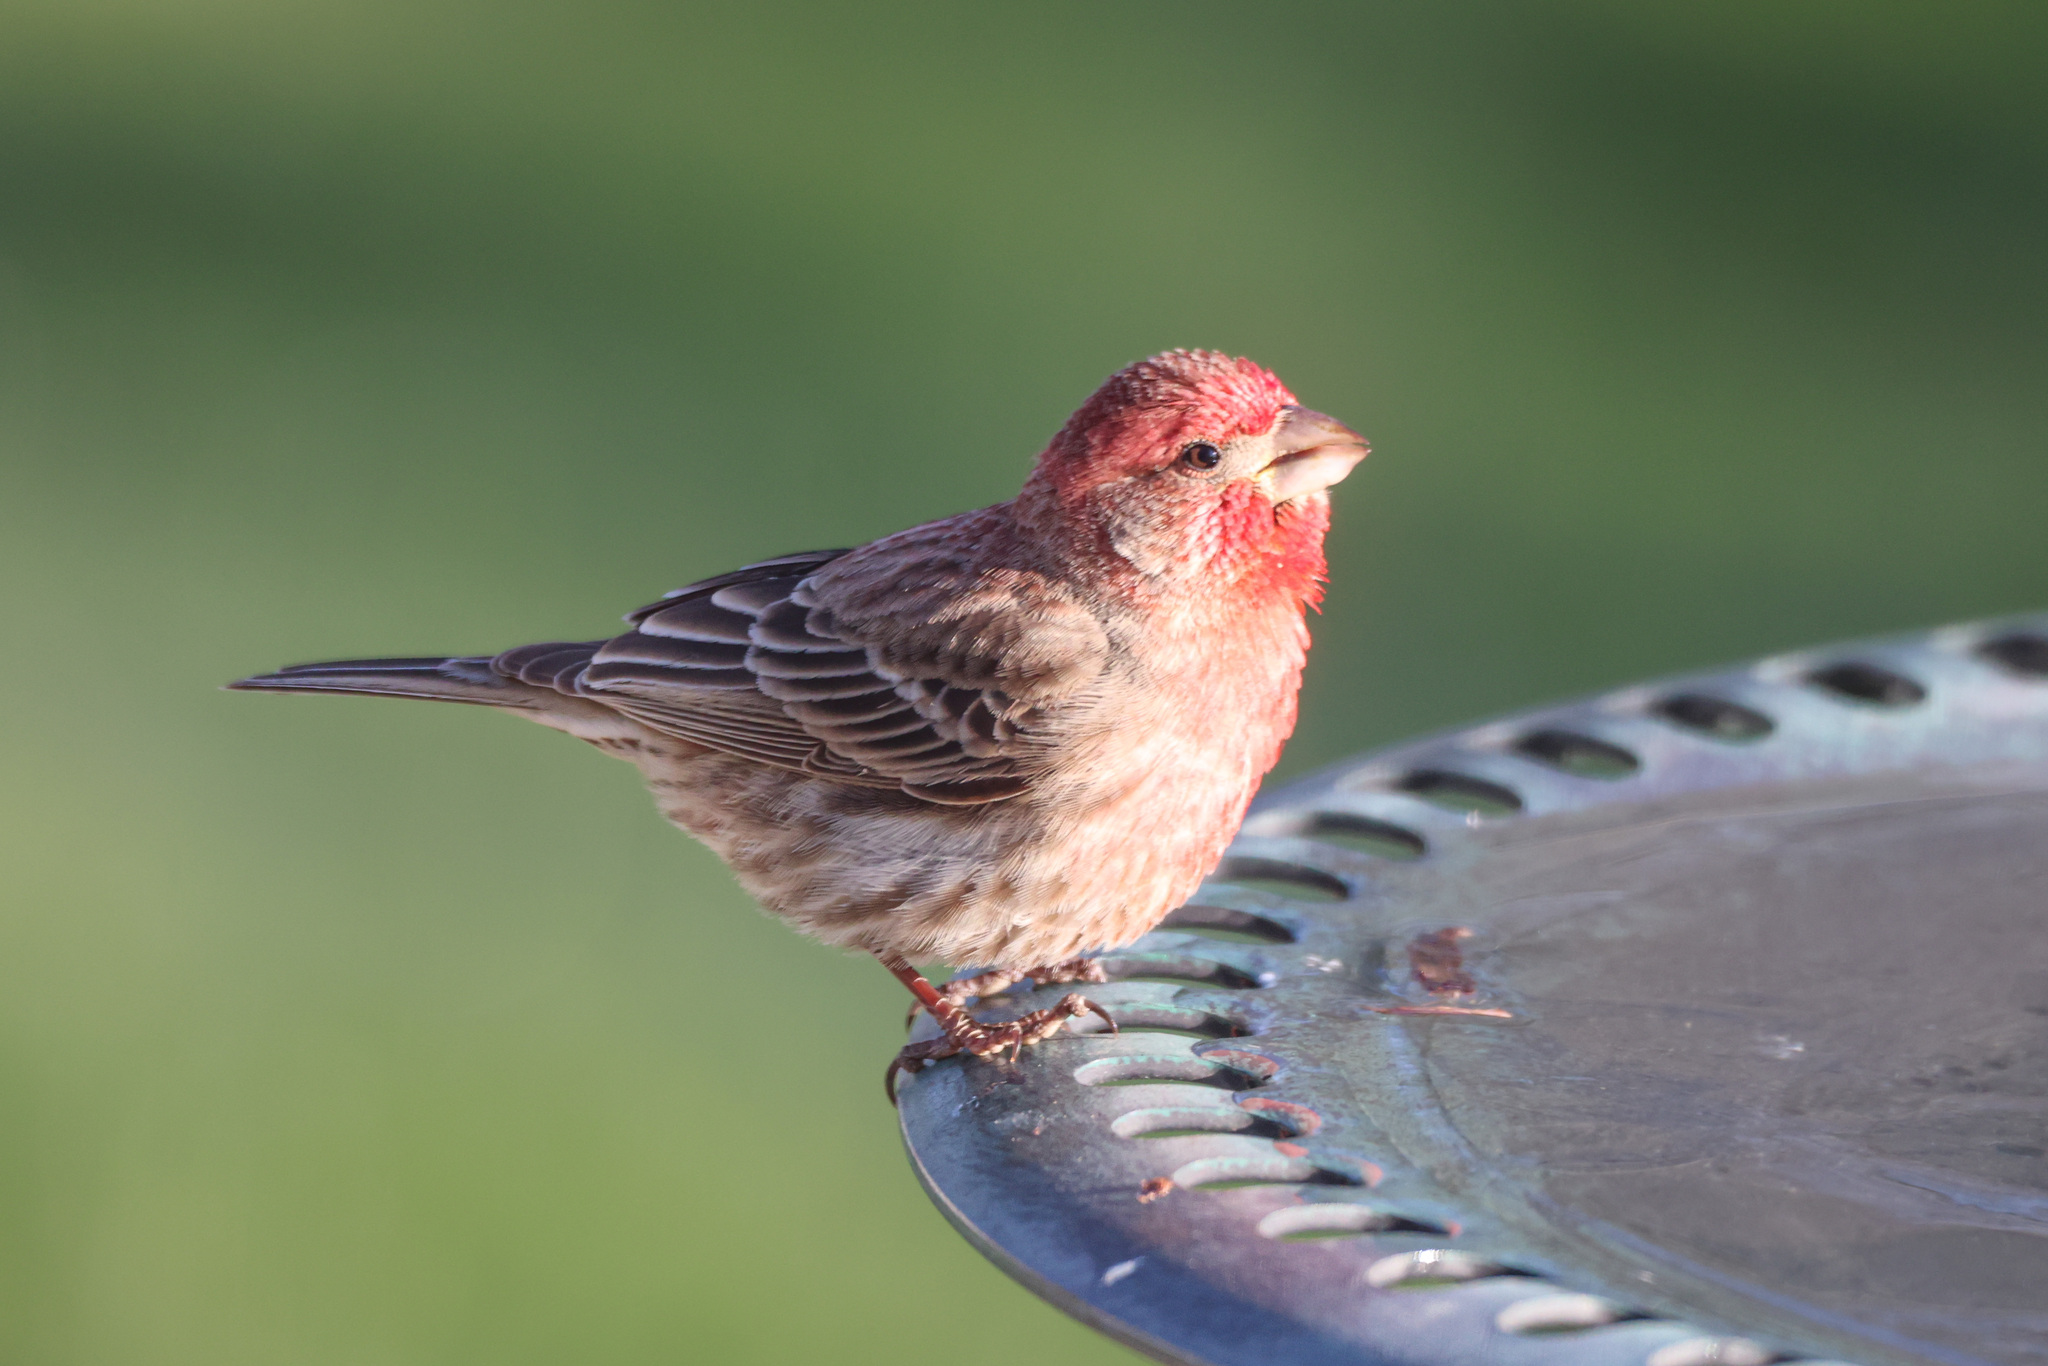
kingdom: Animalia
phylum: Chordata
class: Aves
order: Passeriformes
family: Fringillidae
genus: Haemorhous
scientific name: Haemorhous mexicanus
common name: House finch
